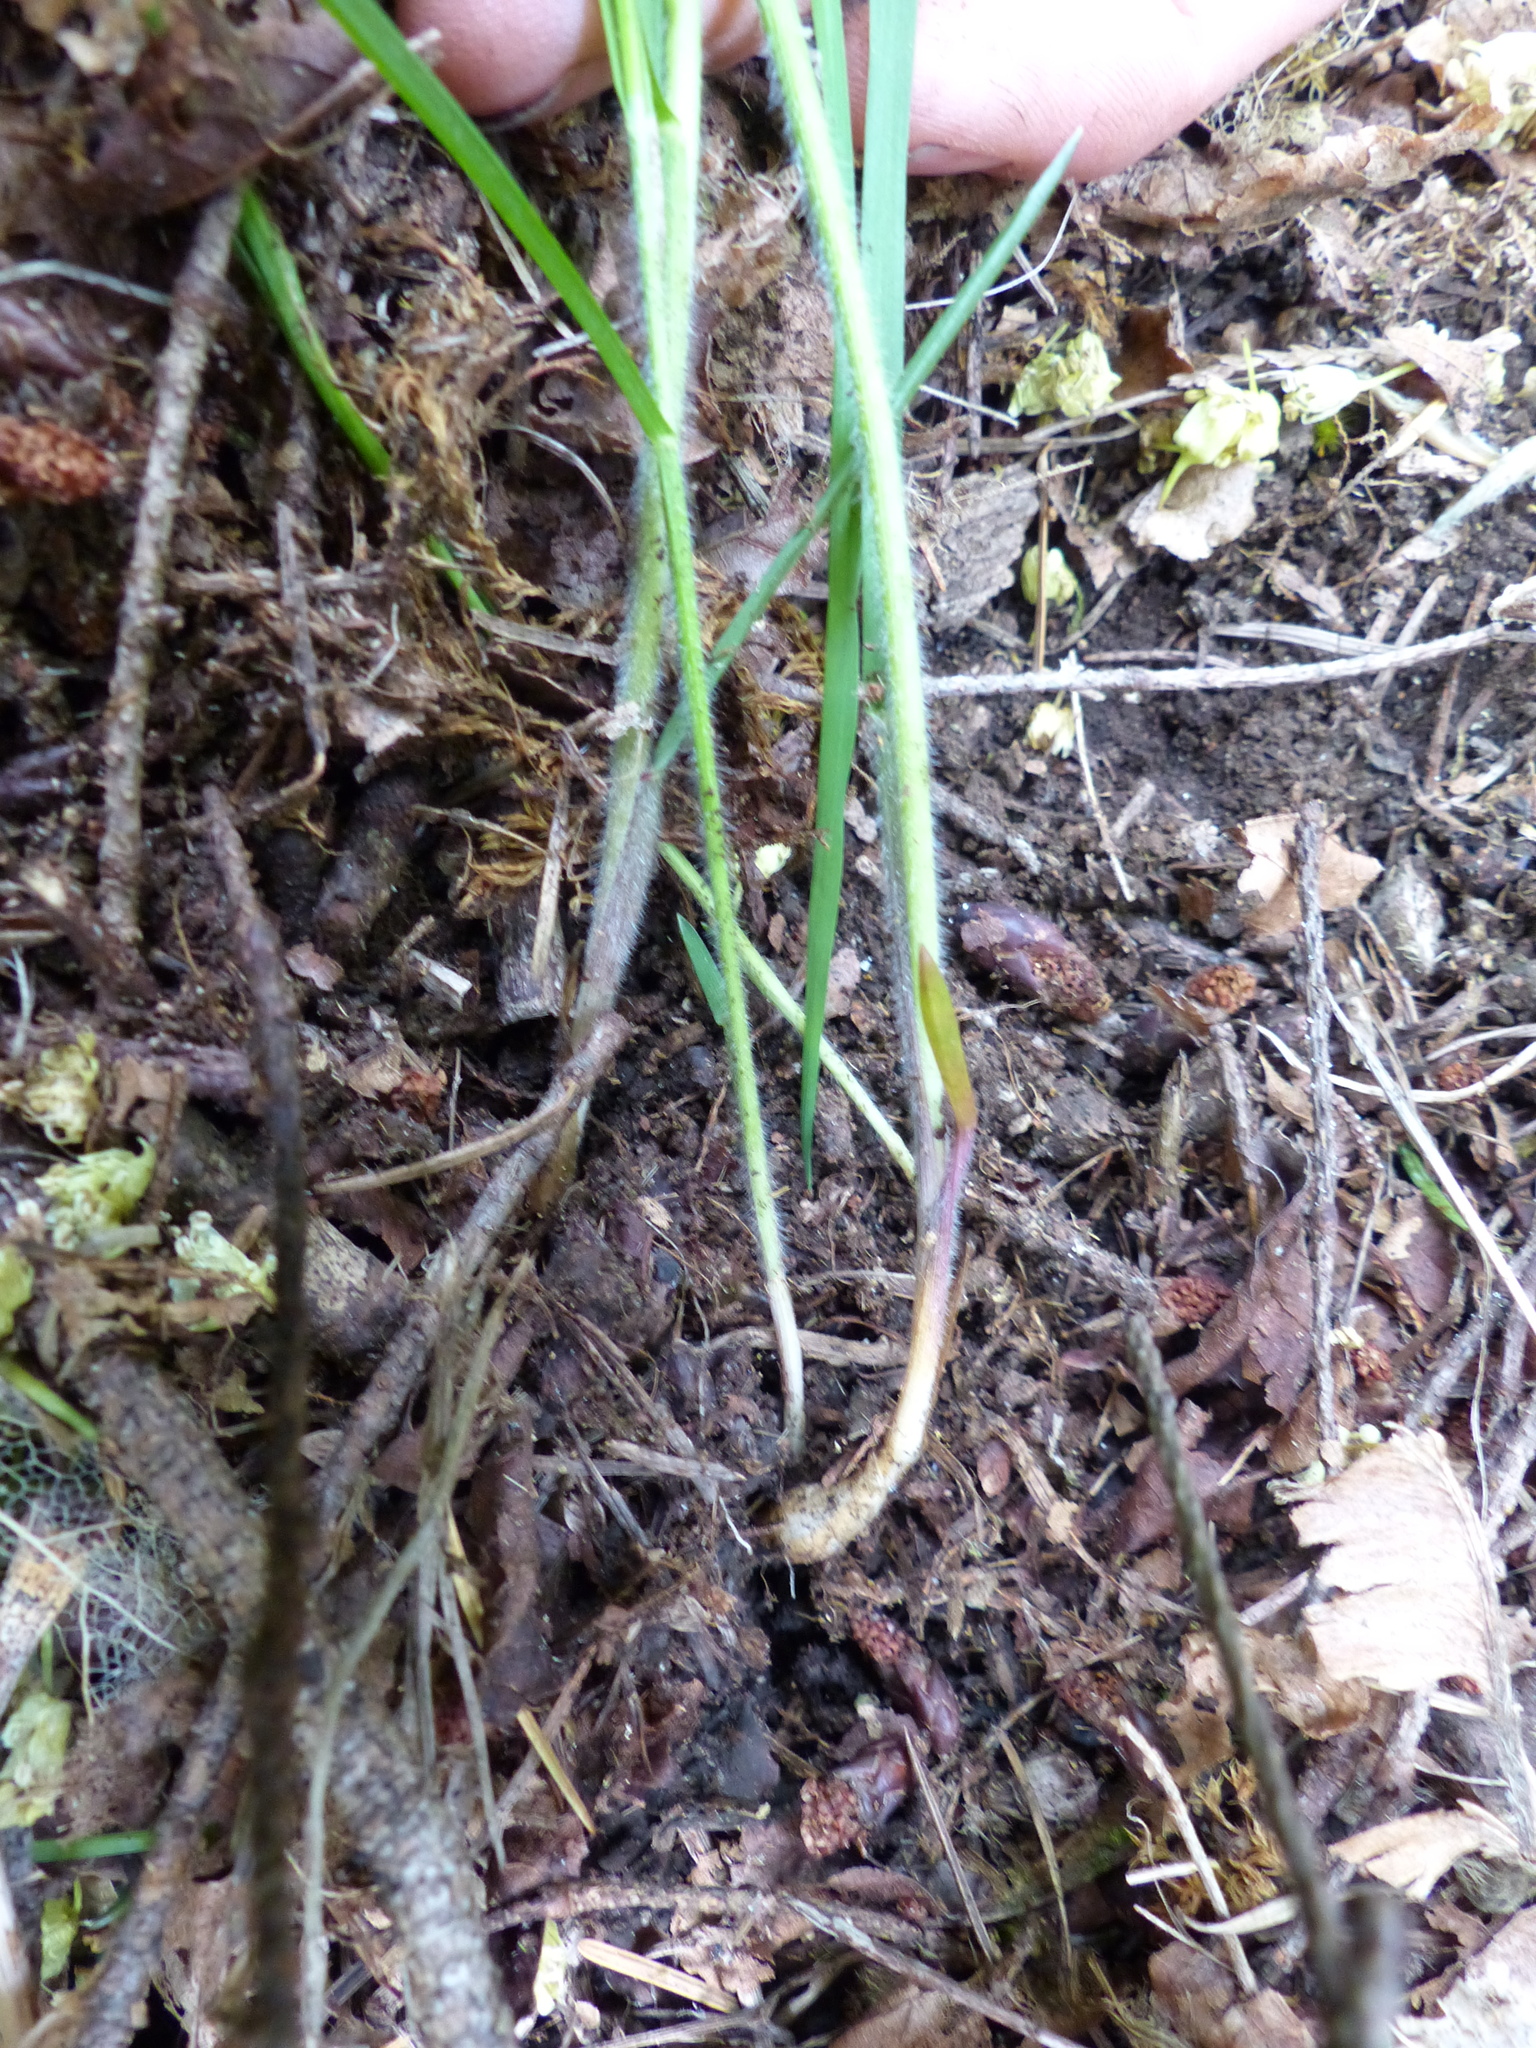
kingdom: Plantae
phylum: Tracheophyta
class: Liliopsida
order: Poales
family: Poaceae
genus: Melica
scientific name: Melica subulata
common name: Tapered oniongrass
